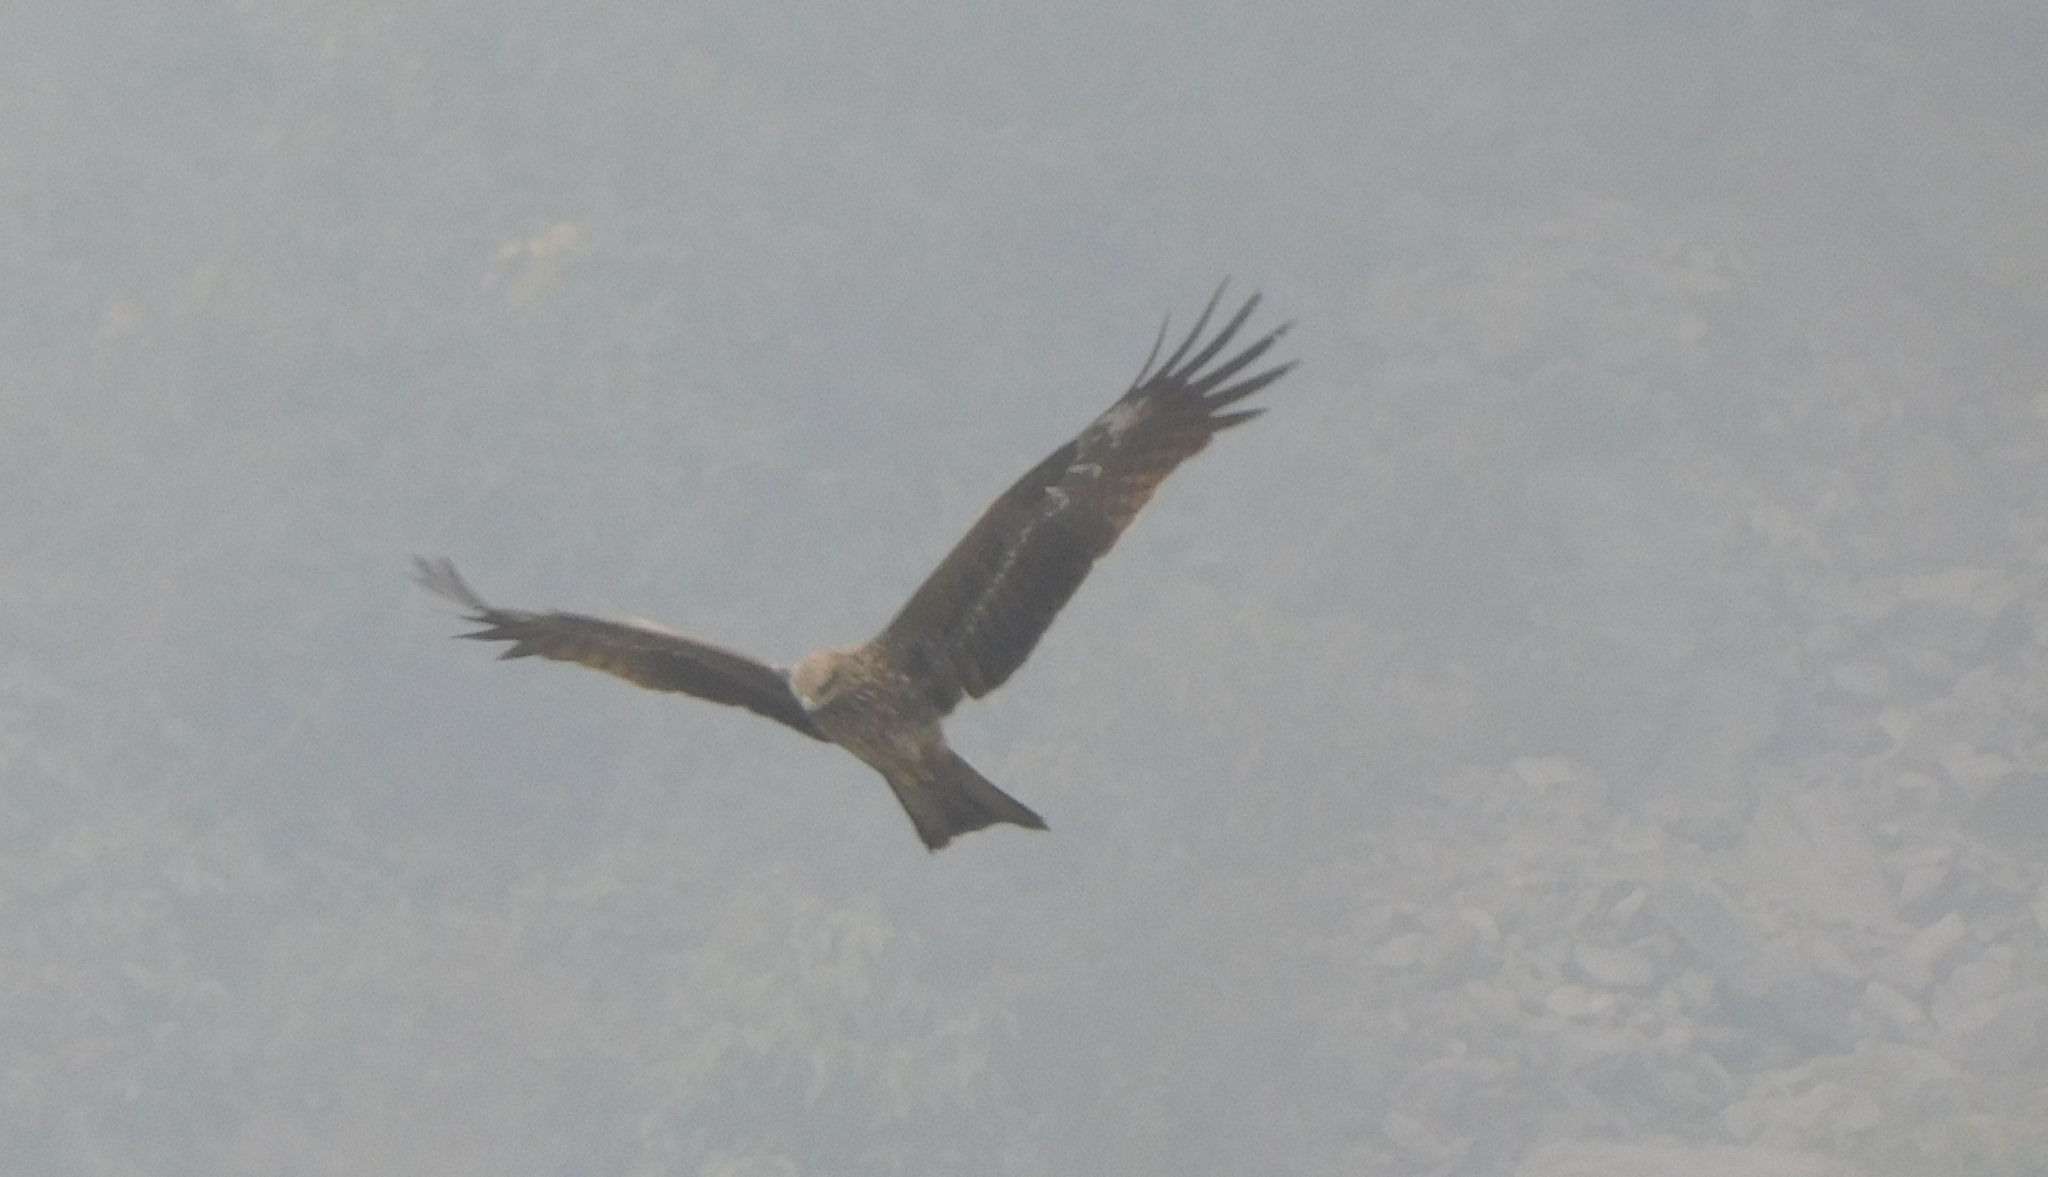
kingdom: Animalia
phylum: Chordata
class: Aves
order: Accipitriformes
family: Accipitridae
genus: Milvus
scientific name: Milvus migrans
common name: Black kite
